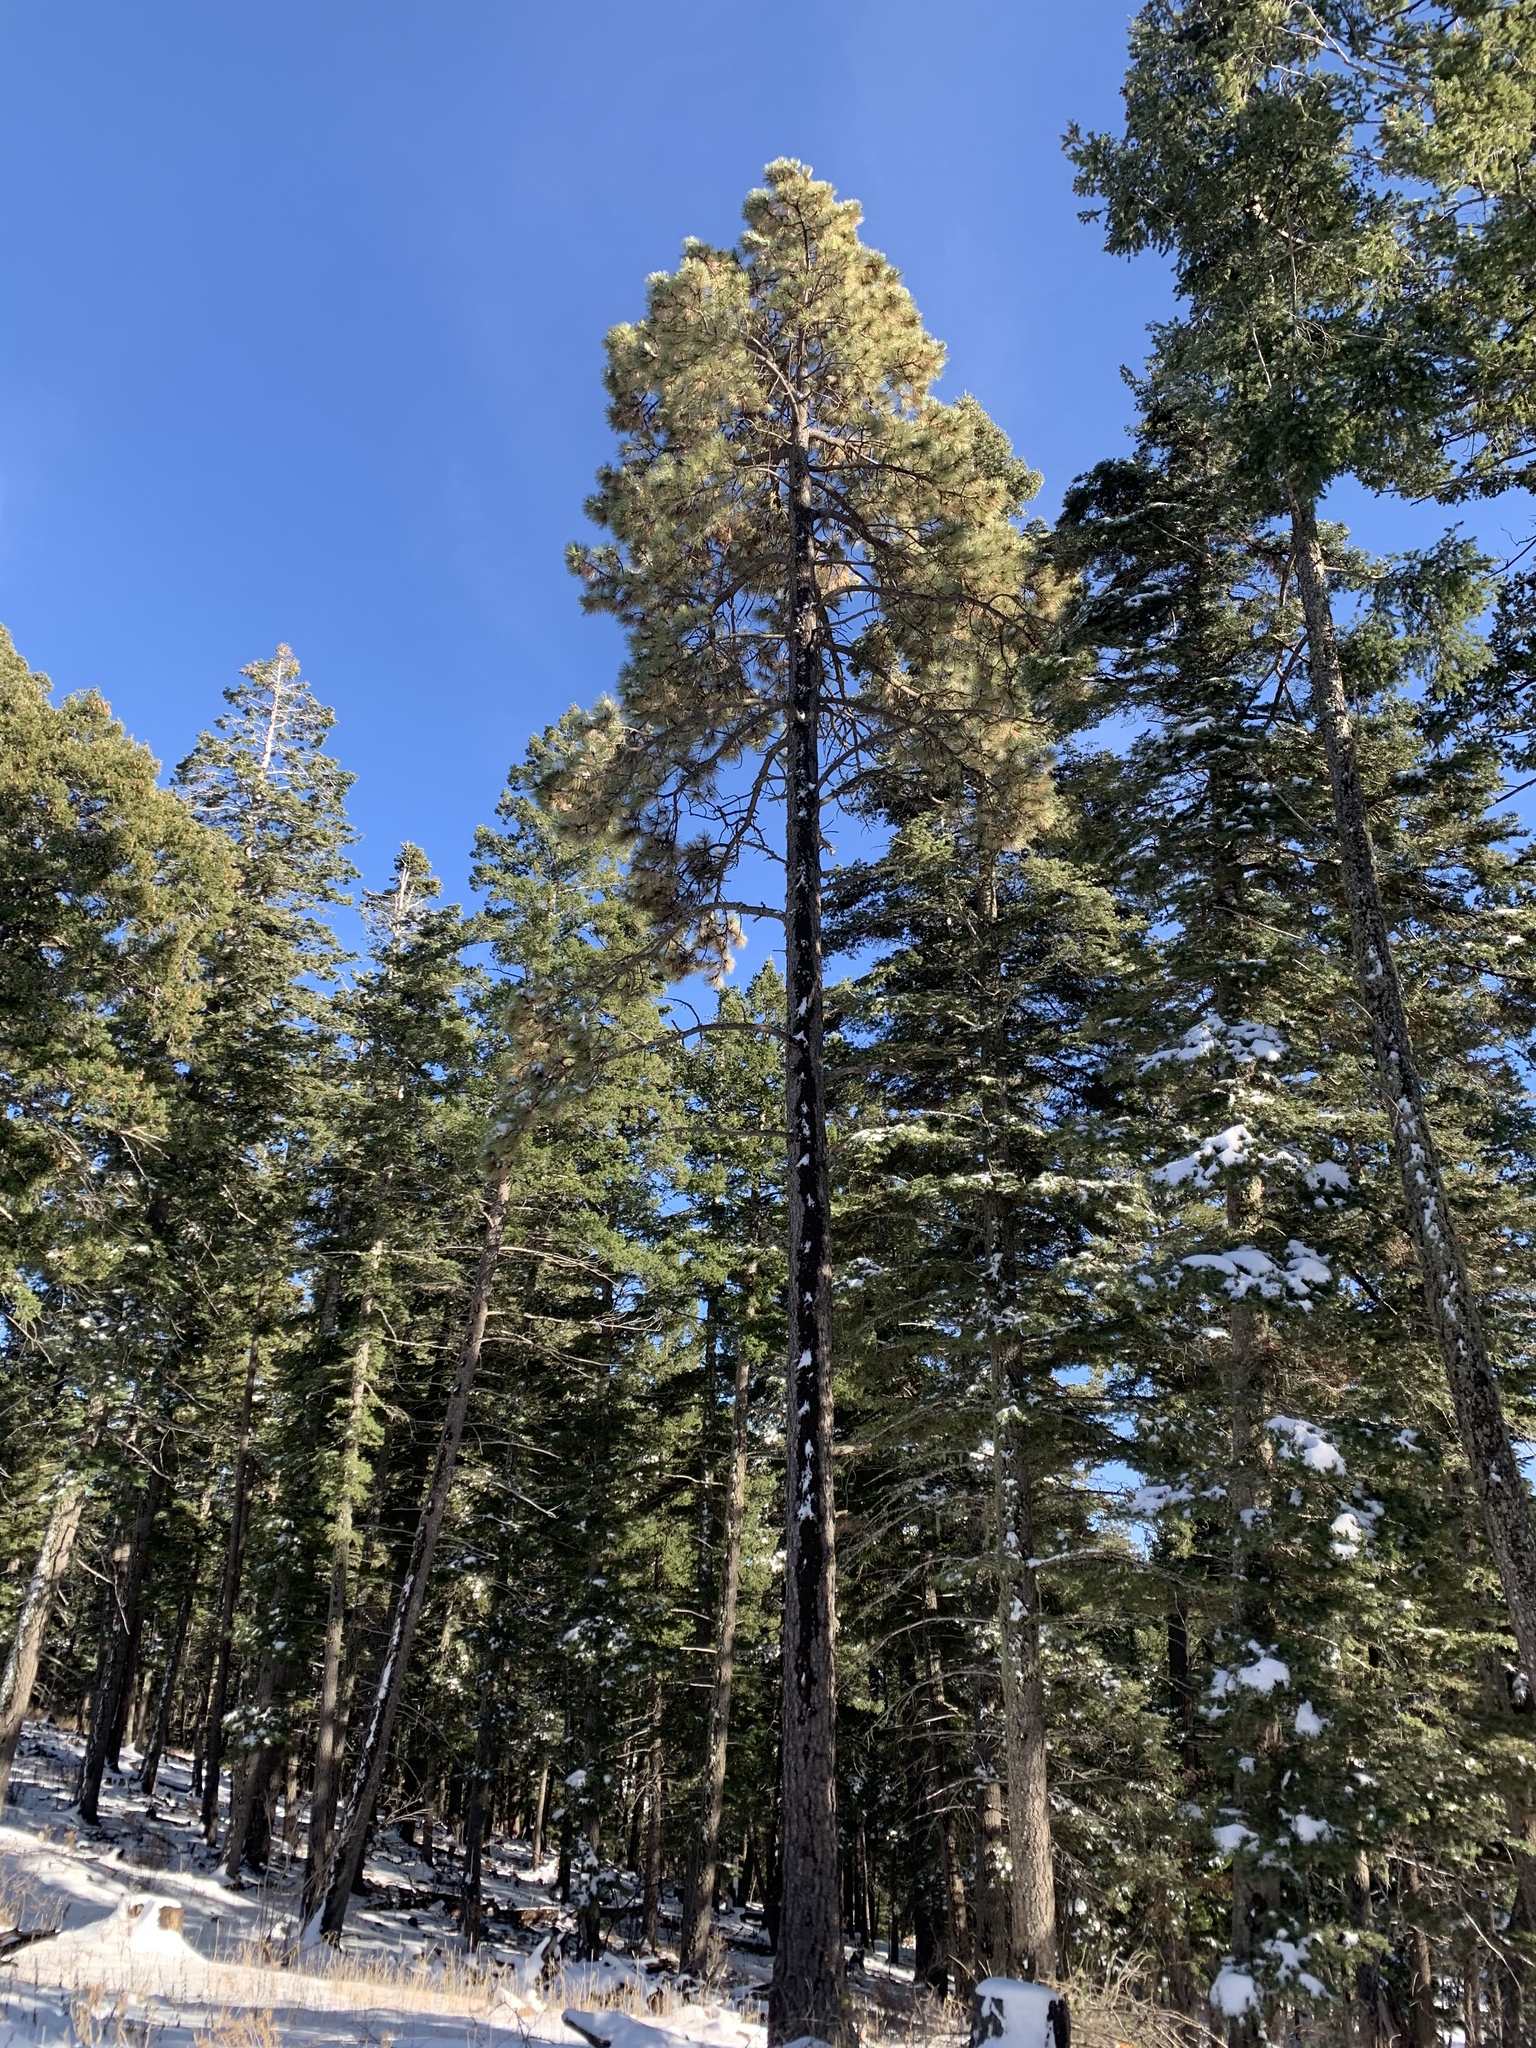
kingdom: Plantae
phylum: Tracheophyta
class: Pinopsida
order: Pinales
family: Pinaceae
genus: Pinus
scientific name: Pinus ponderosa
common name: Western yellow-pine
